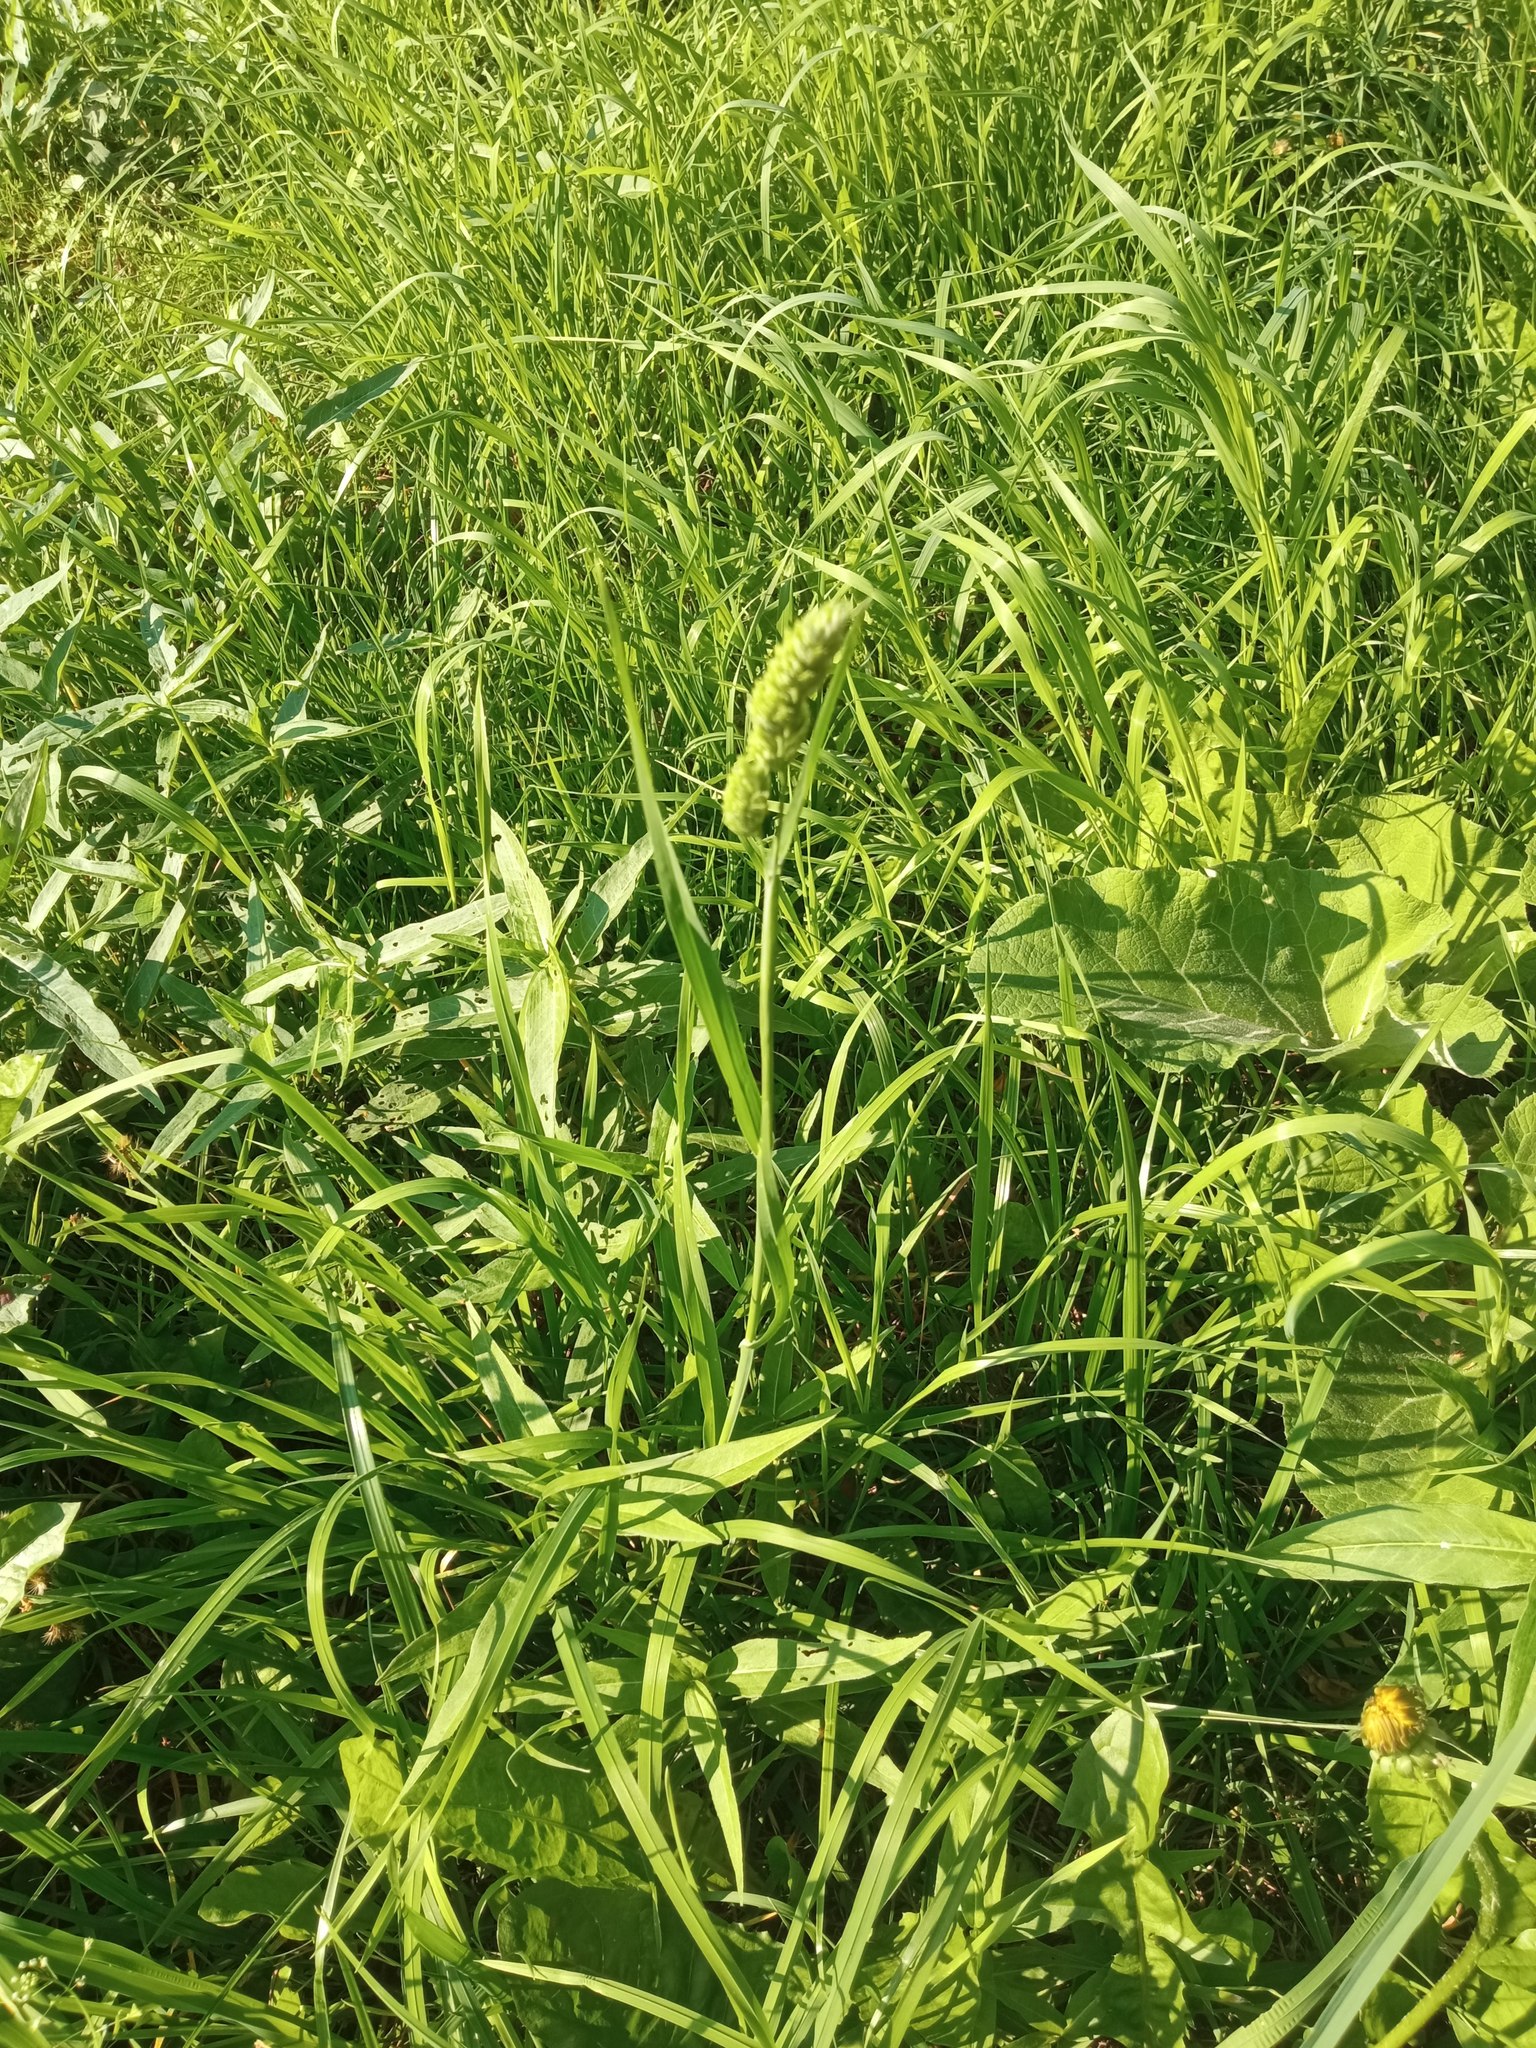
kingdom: Plantae
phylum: Tracheophyta
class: Liliopsida
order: Poales
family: Poaceae
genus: Dactylis
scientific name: Dactylis glomerata
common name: Orchardgrass
